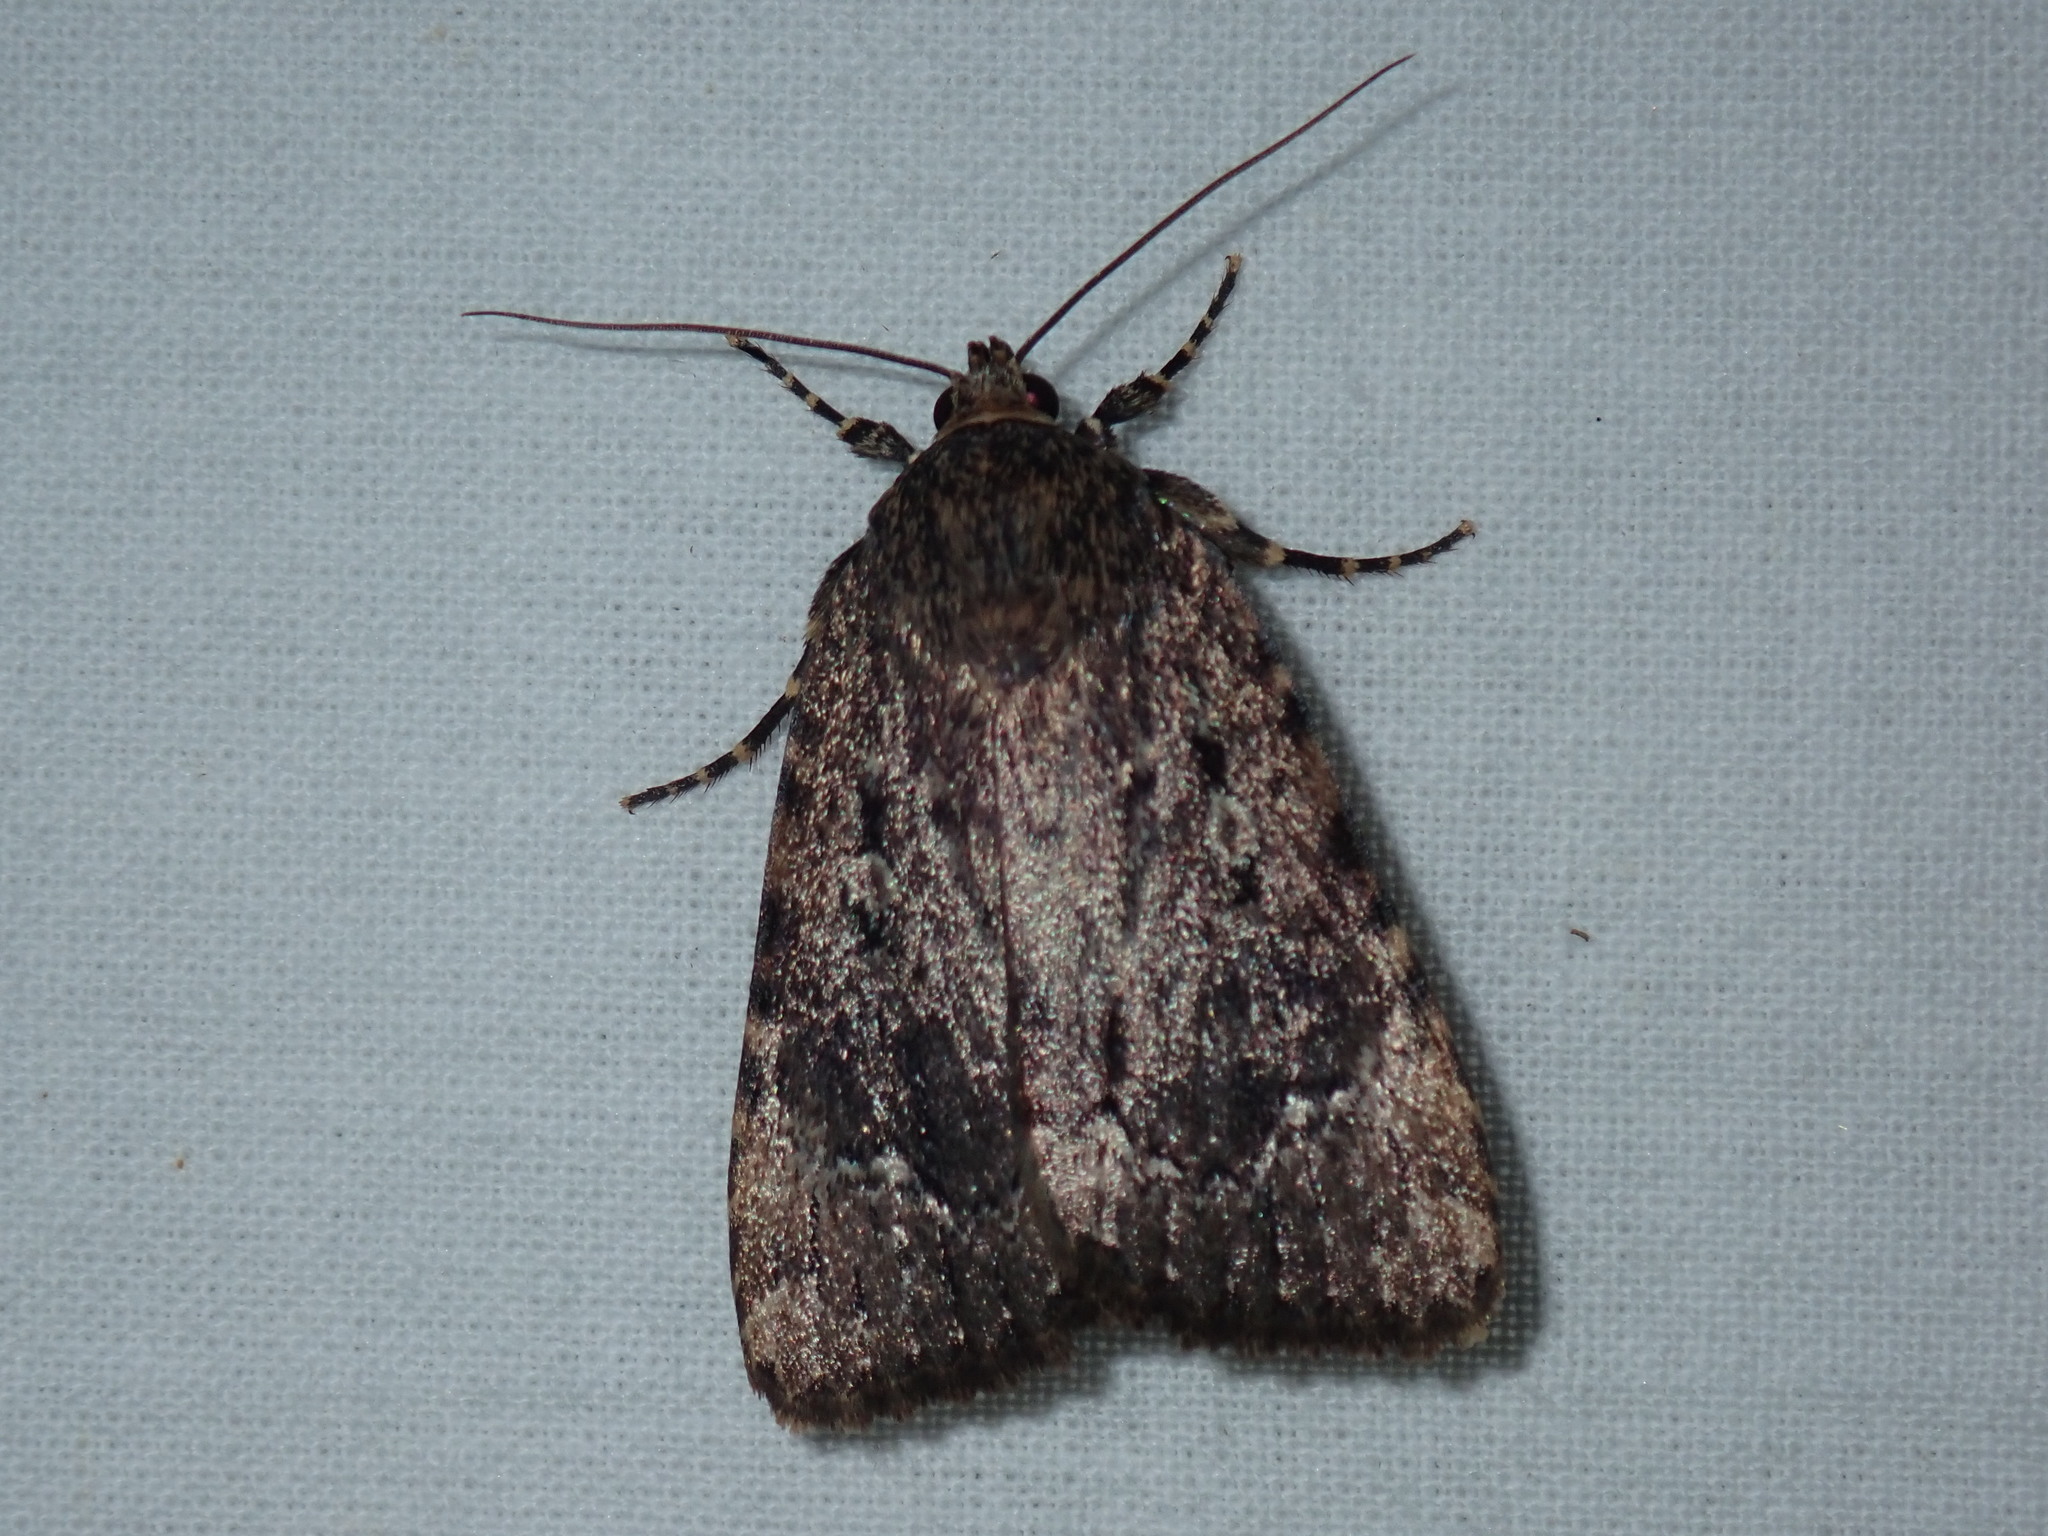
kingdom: Animalia
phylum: Arthropoda
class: Insecta
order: Lepidoptera
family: Noctuidae
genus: Amphipyra
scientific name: Amphipyra pyramidoides
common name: American copper underwing
